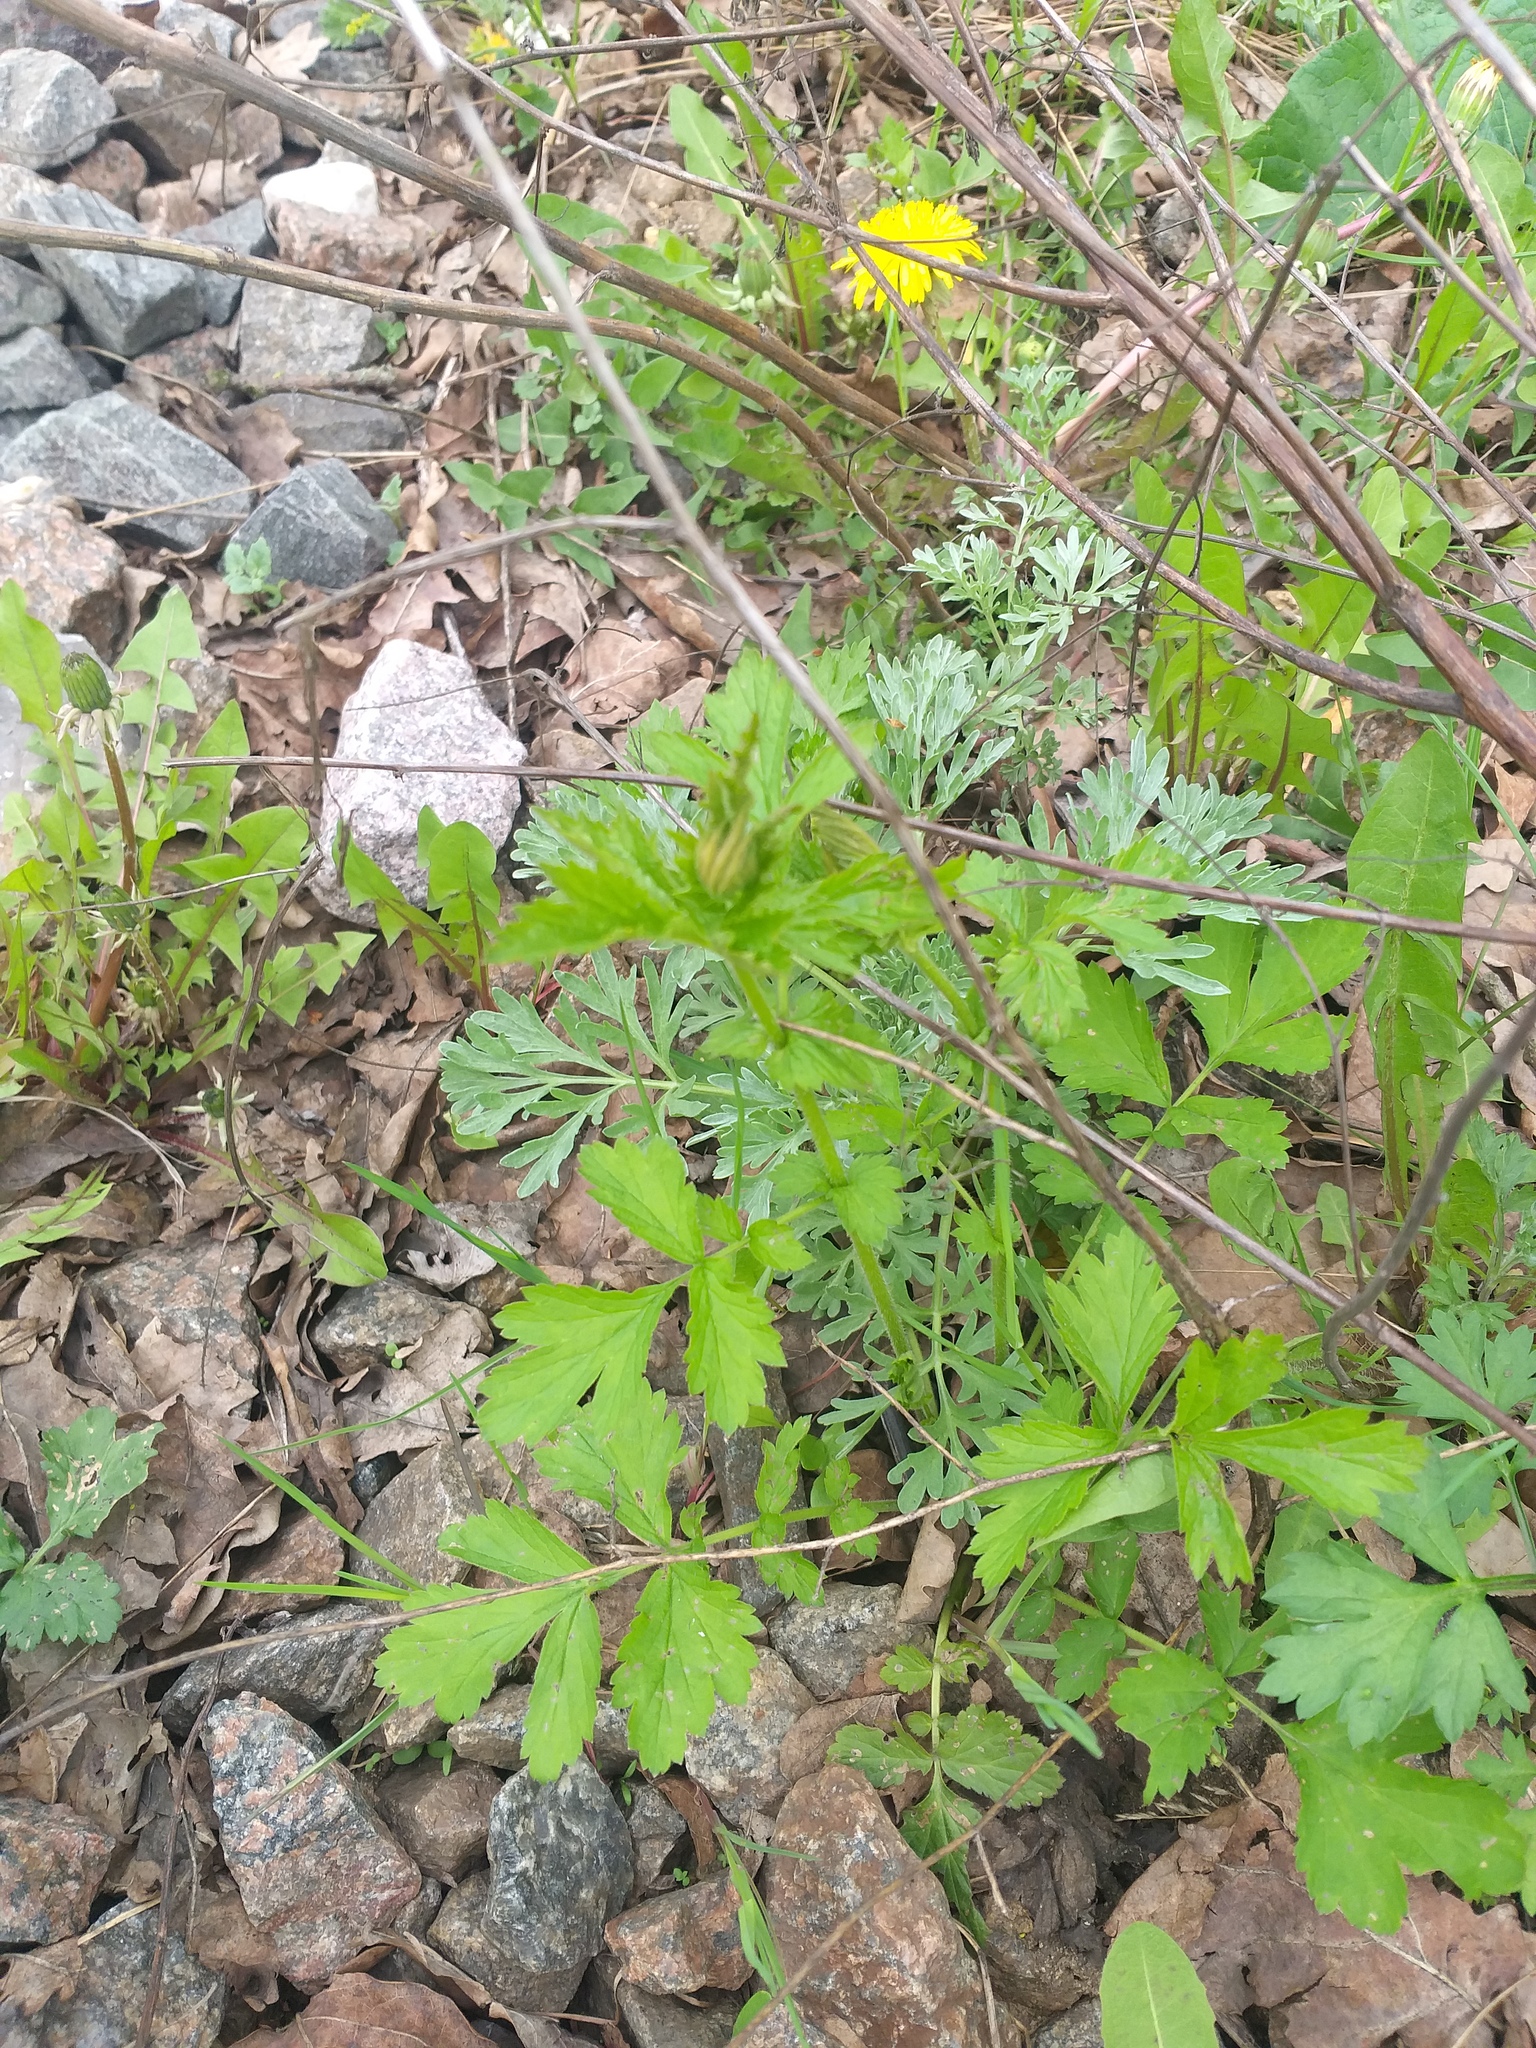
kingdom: Plantae
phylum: Tracheophyta
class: Magnoliopsida
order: Rosales
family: Rosaceae
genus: Geum
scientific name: Geum urbanum
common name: Wood avens
